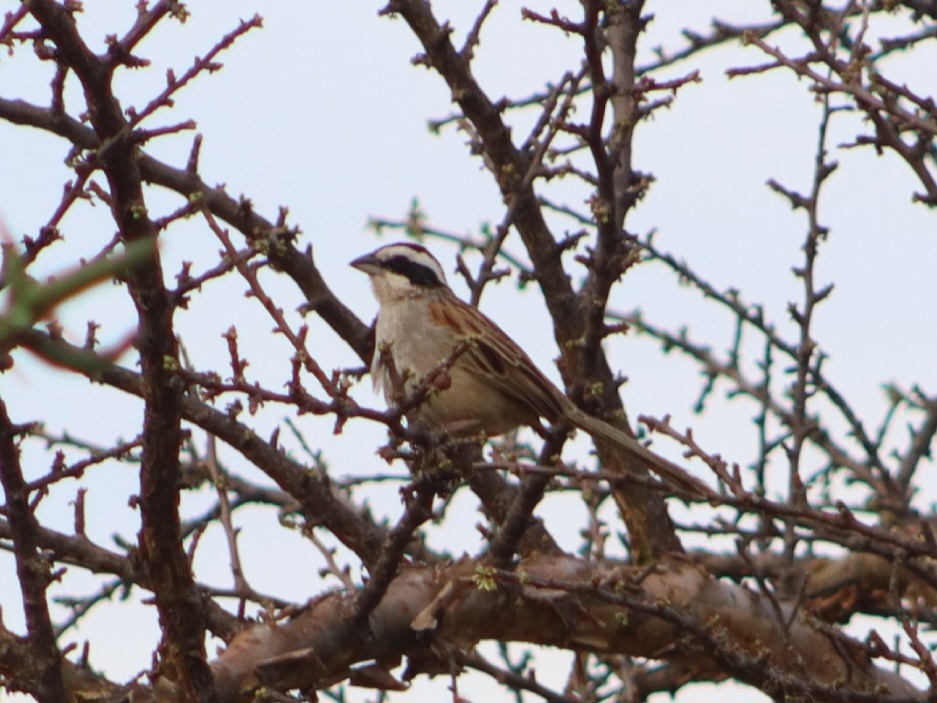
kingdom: Animalia
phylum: Chordata
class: Aves
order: Passeriformes
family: Passerellidae
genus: Peucaea
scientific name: Peucaea ruficauda
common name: Stripe-headed sparrow
